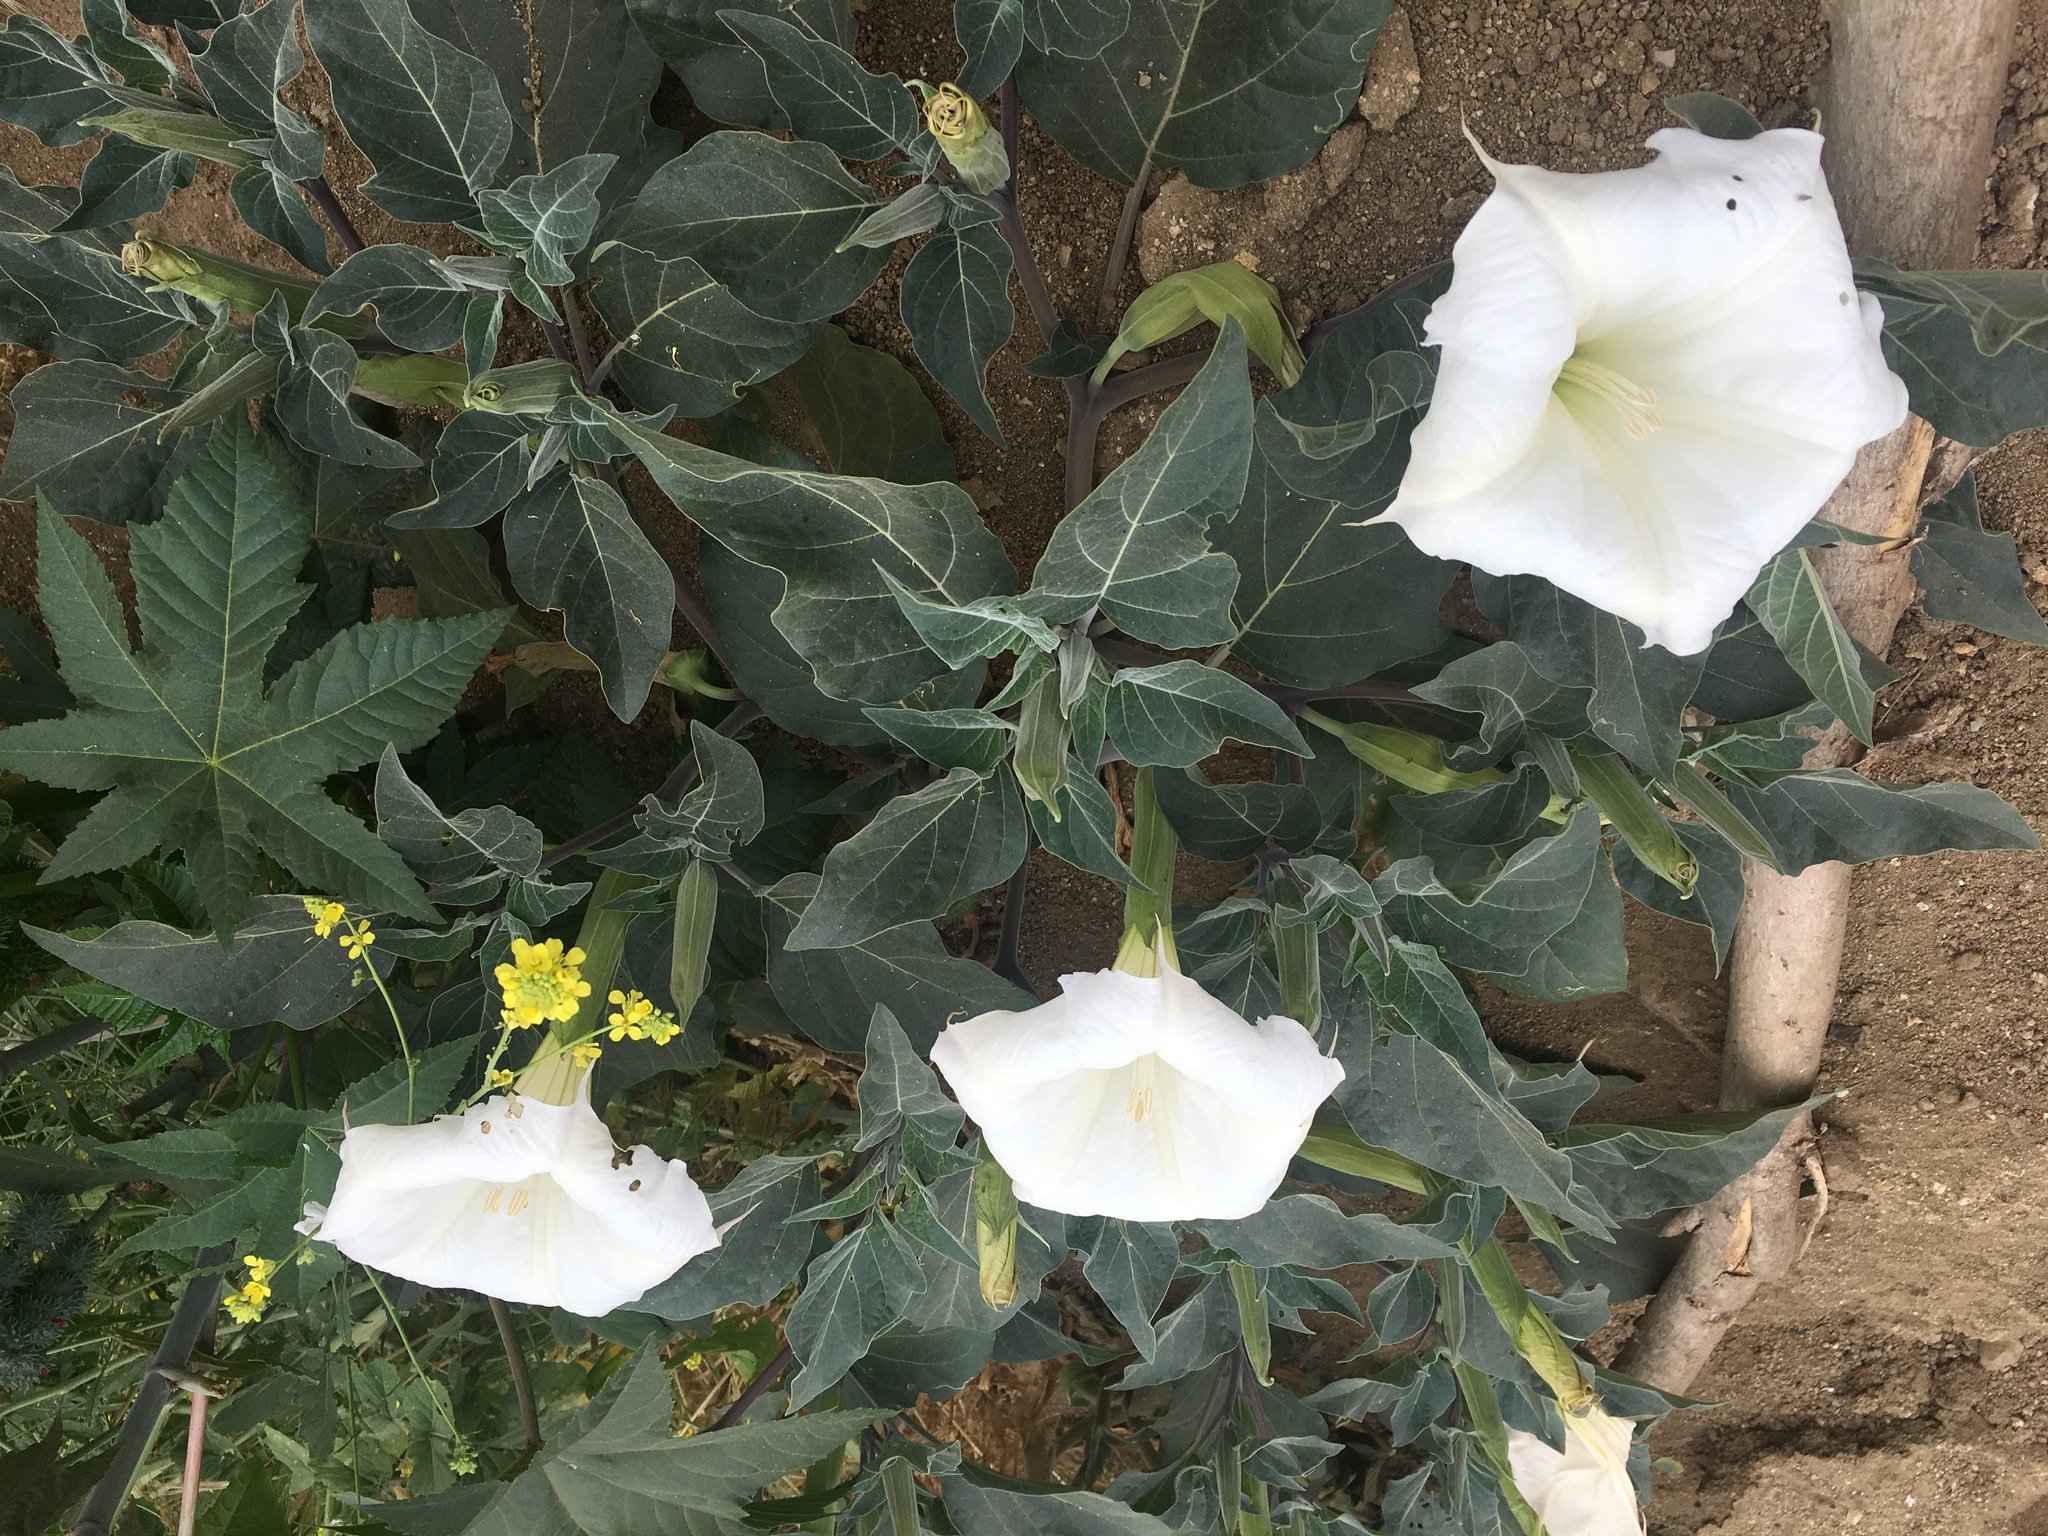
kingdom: Plantae
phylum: Tracheophyta
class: Magnoliopsida
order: Solanales
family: Solanaceae
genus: Datura
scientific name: Datura wrightii
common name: Sacred thorn-apple
